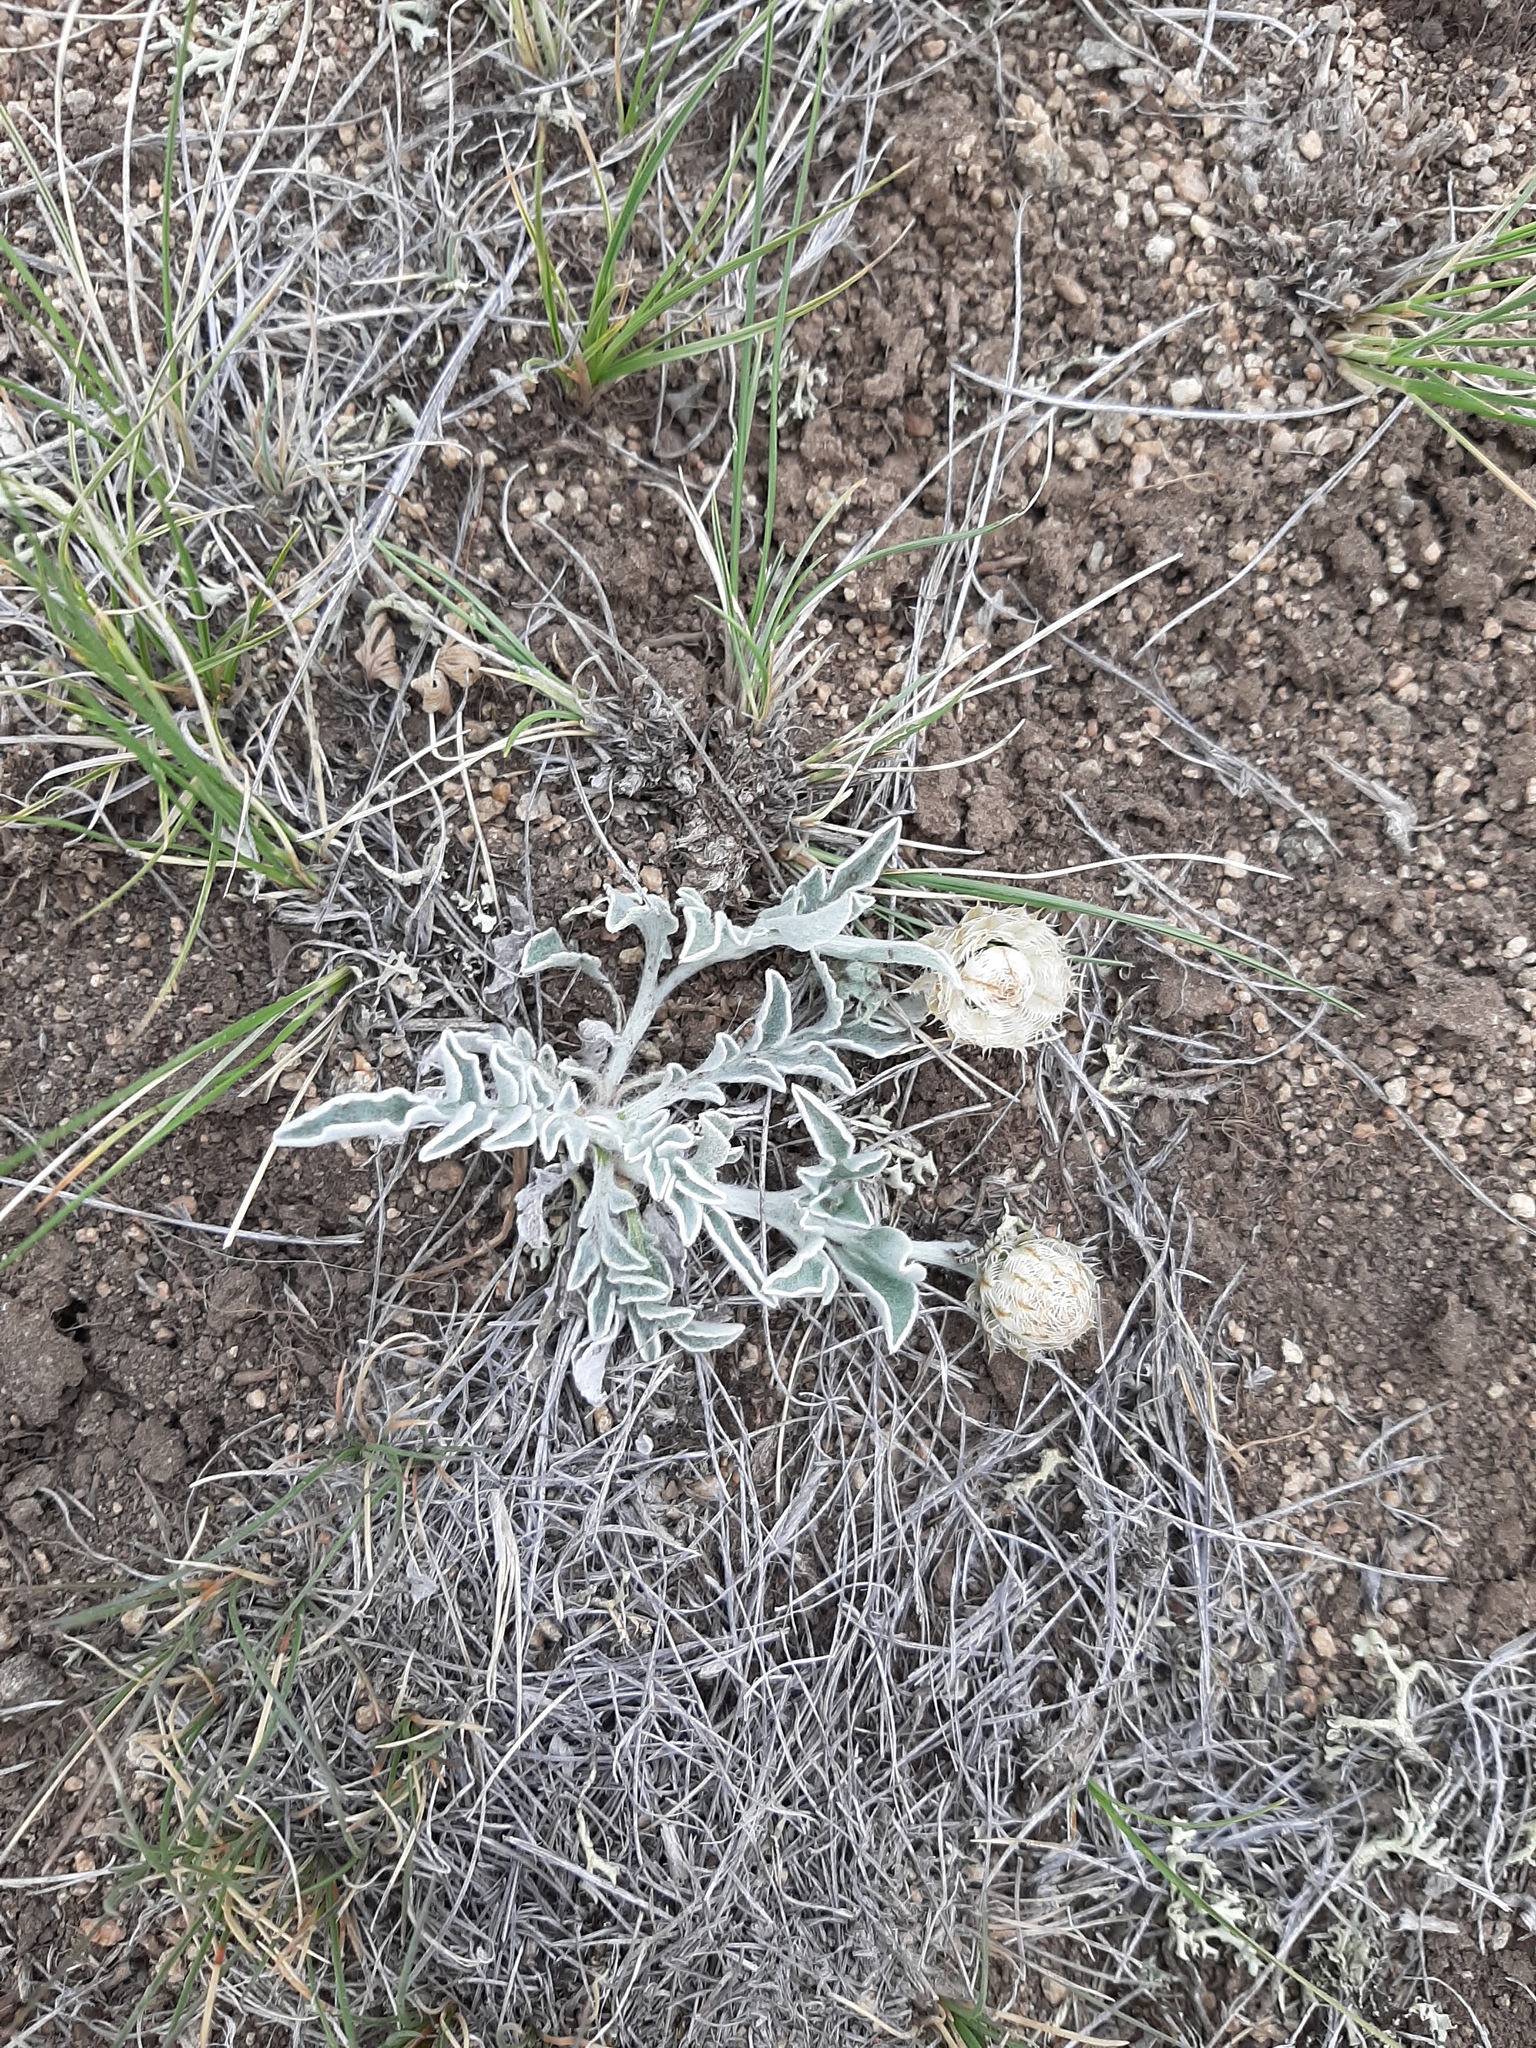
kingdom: Plantae
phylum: Tracheophyta
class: Magnoliopsida
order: Asterales
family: Asteraceae
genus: Psephellus
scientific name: Psephellus sibiricus
